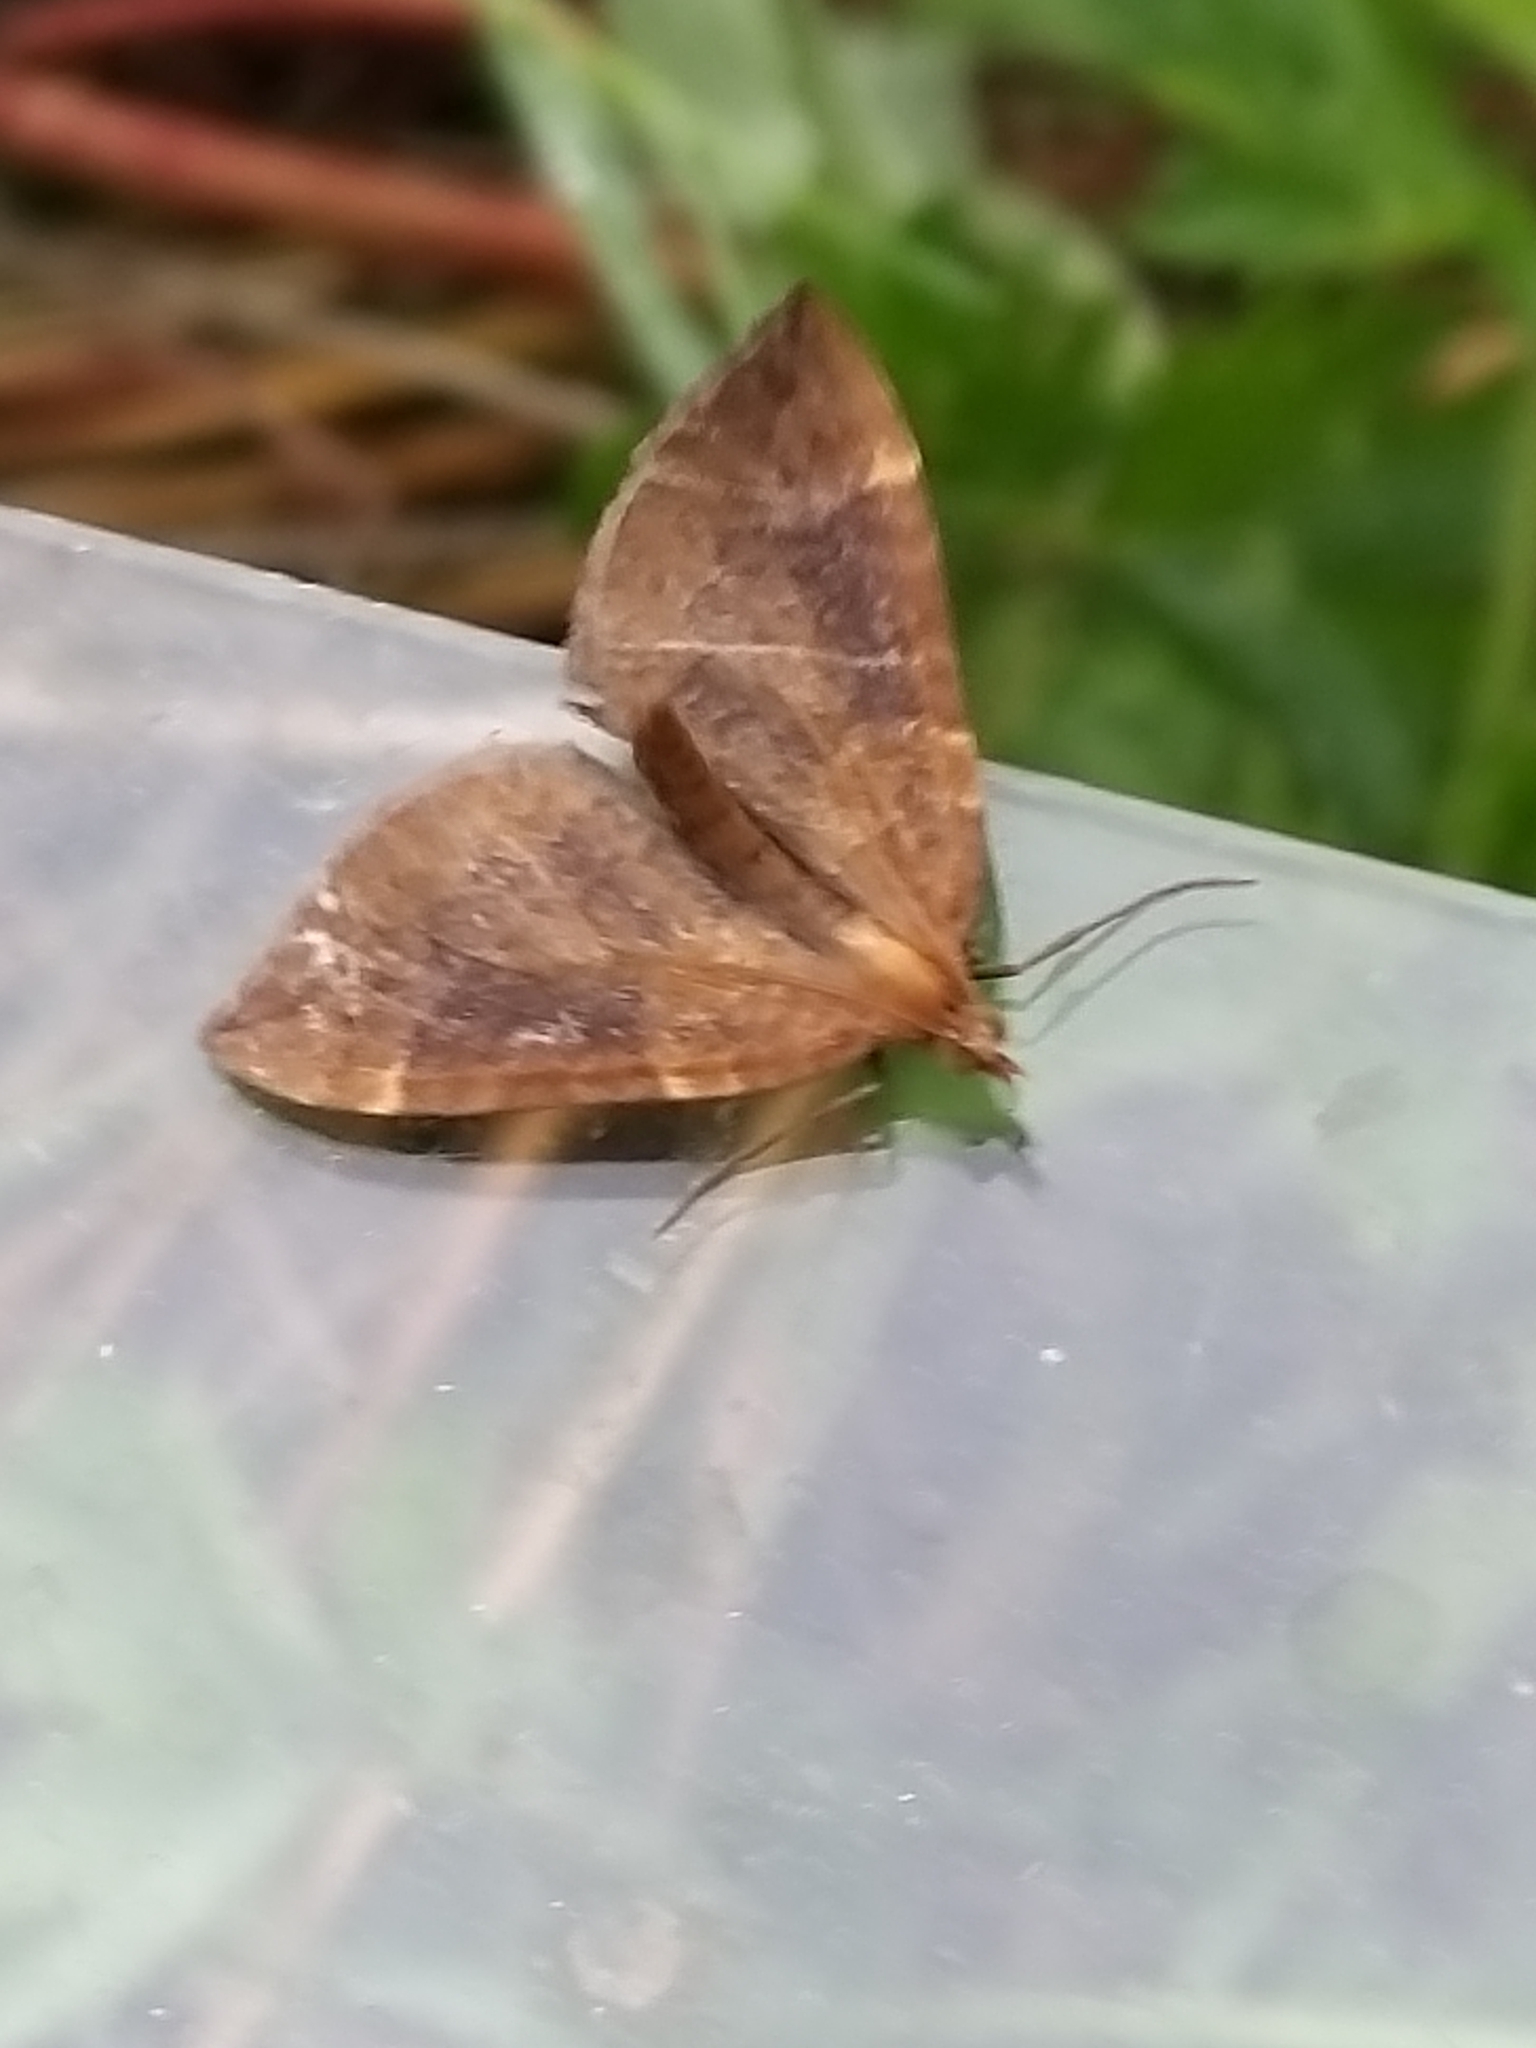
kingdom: Animalia
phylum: Arthropoda
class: Insecta
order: Lepidoptera
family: Geometridae
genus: Eulithis
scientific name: Eulithis testata
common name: Chevron
